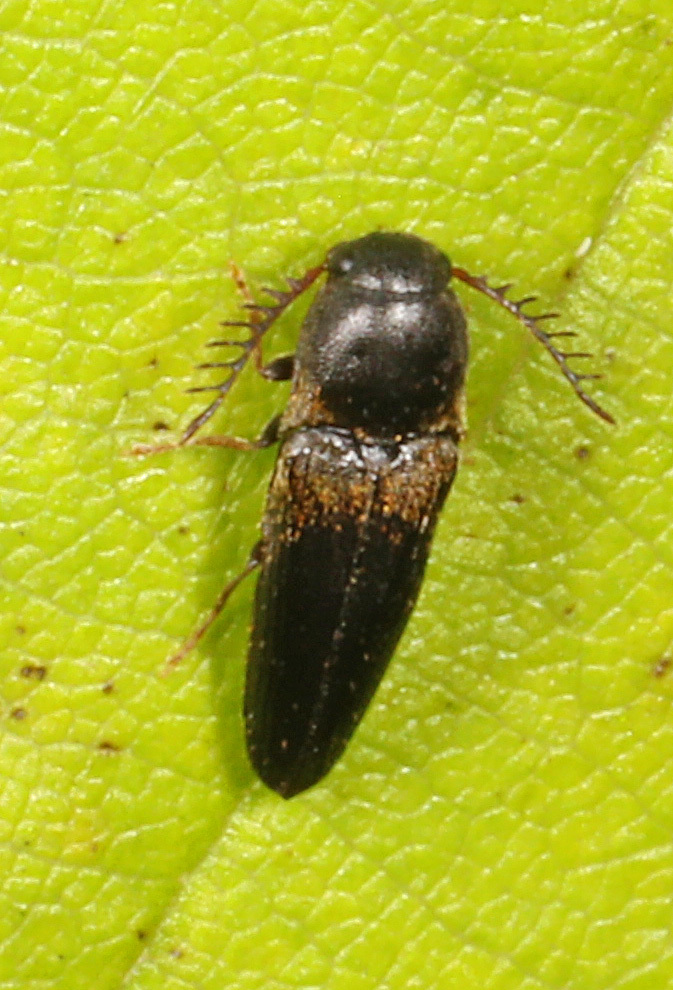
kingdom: Animalia
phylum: Arthropoda
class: Insecta
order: Coleoptera
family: Eucnemidae
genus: Deltometopus
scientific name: Deltometopus amoenicornis
